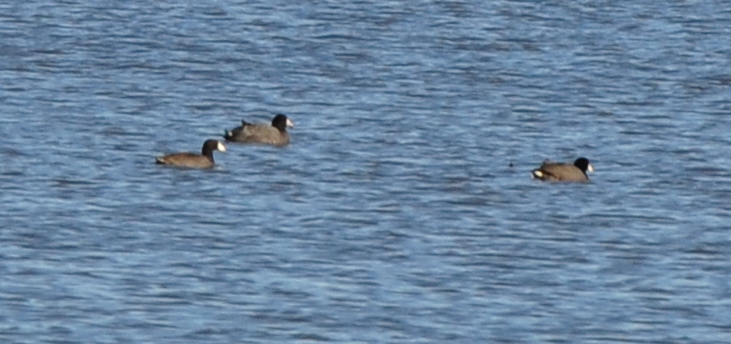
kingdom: Animalia
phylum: Chordata
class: Aves
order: Gruiformes
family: Rallidae
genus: Fulica
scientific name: Fulica americana
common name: American coot
